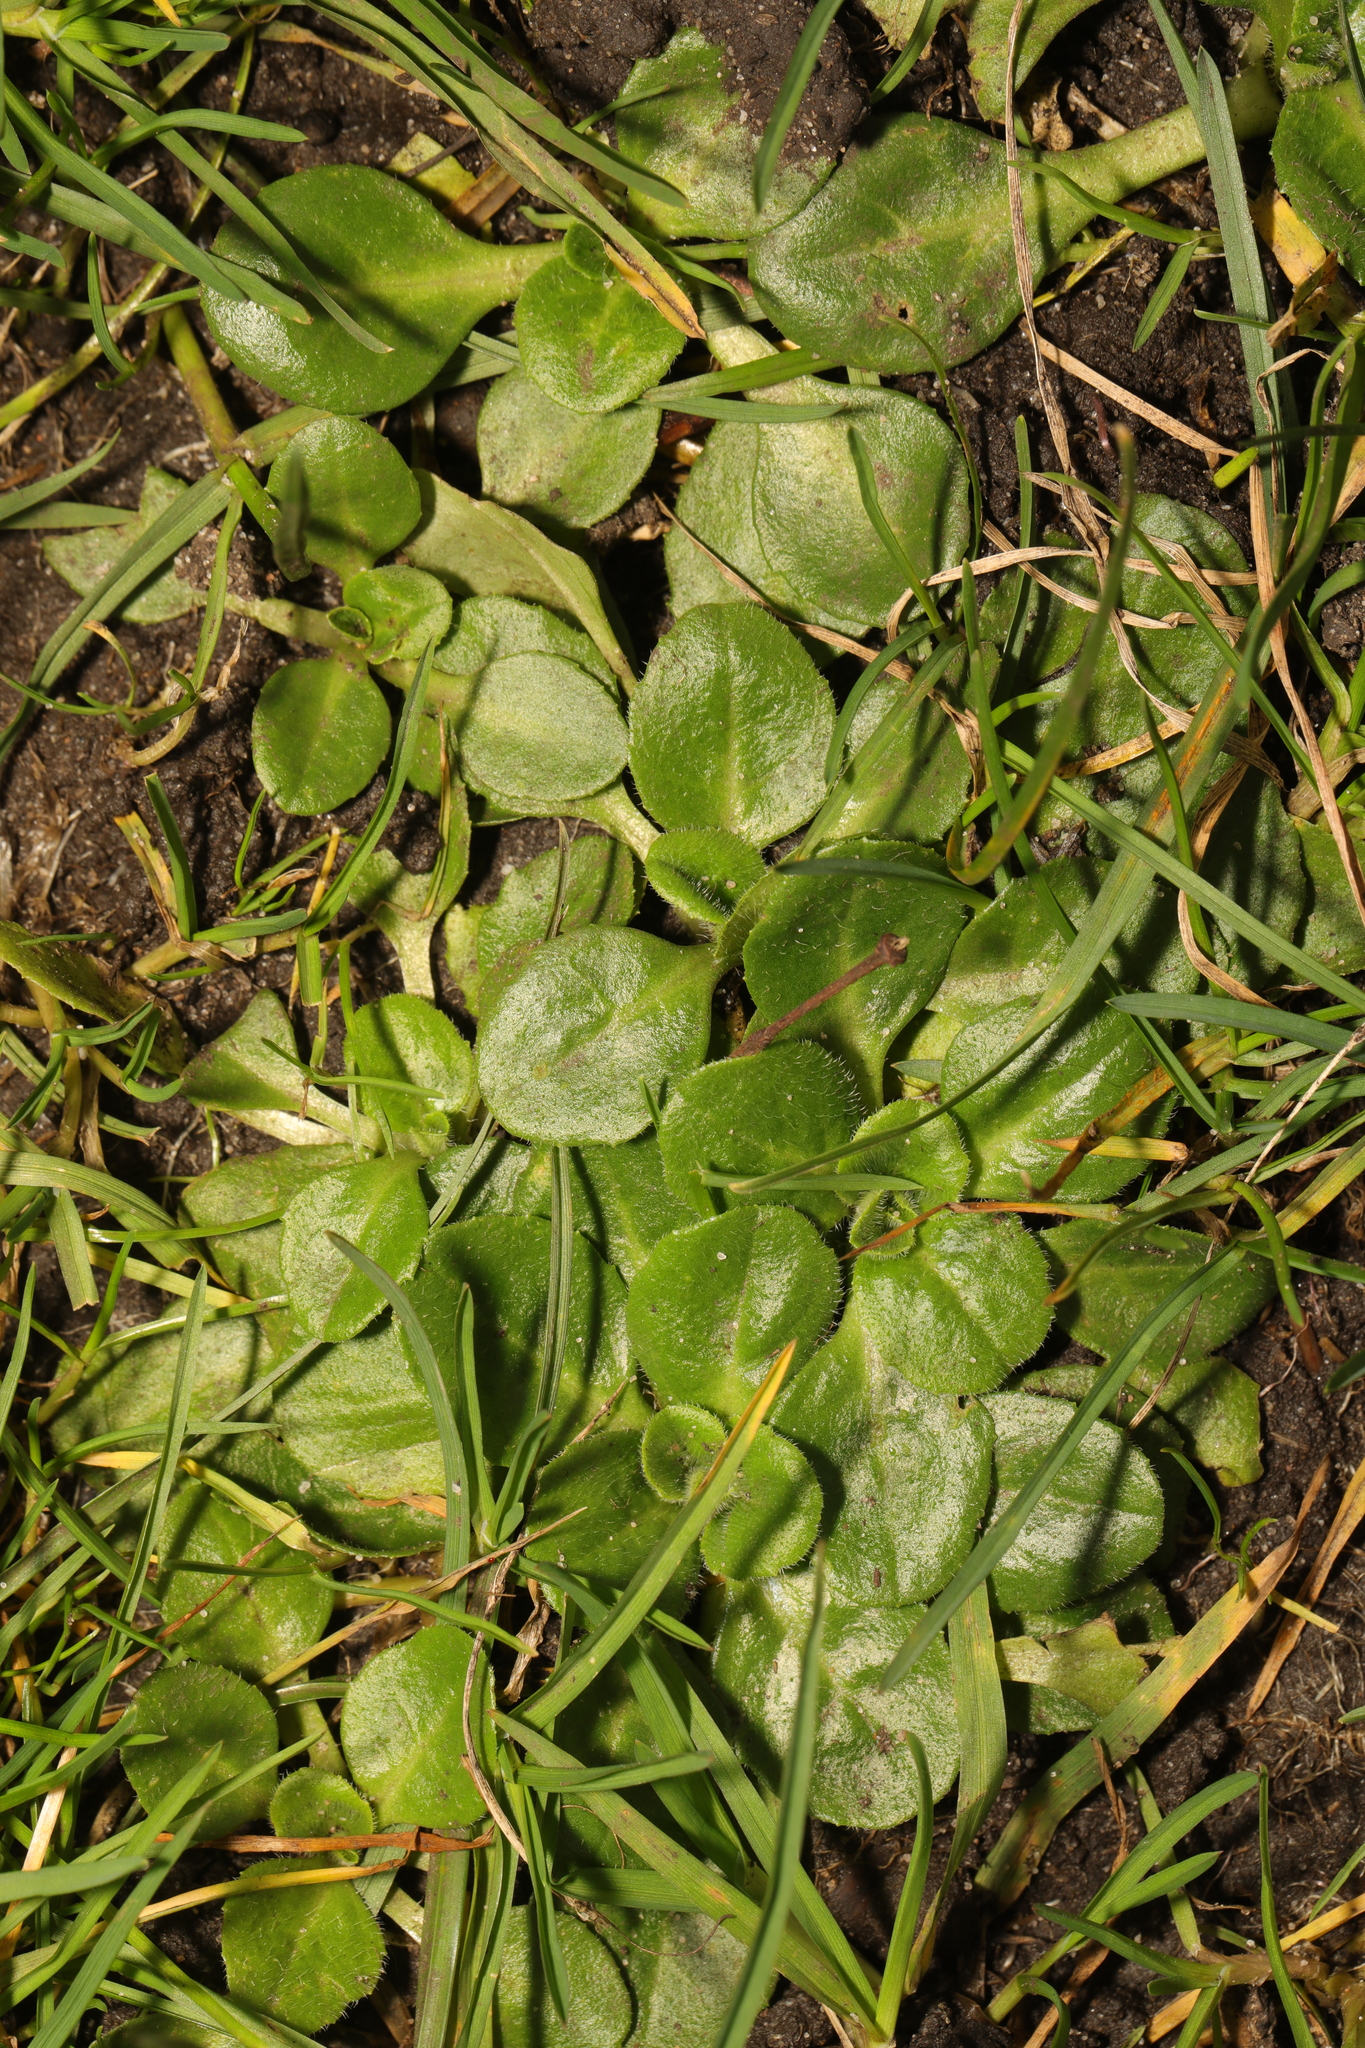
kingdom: Plantae
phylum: Tracheophyta
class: Magnoliopsida
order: Asterales
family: Asteraceae
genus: Bellis
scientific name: Bellis perennis
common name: Lawndaisy
